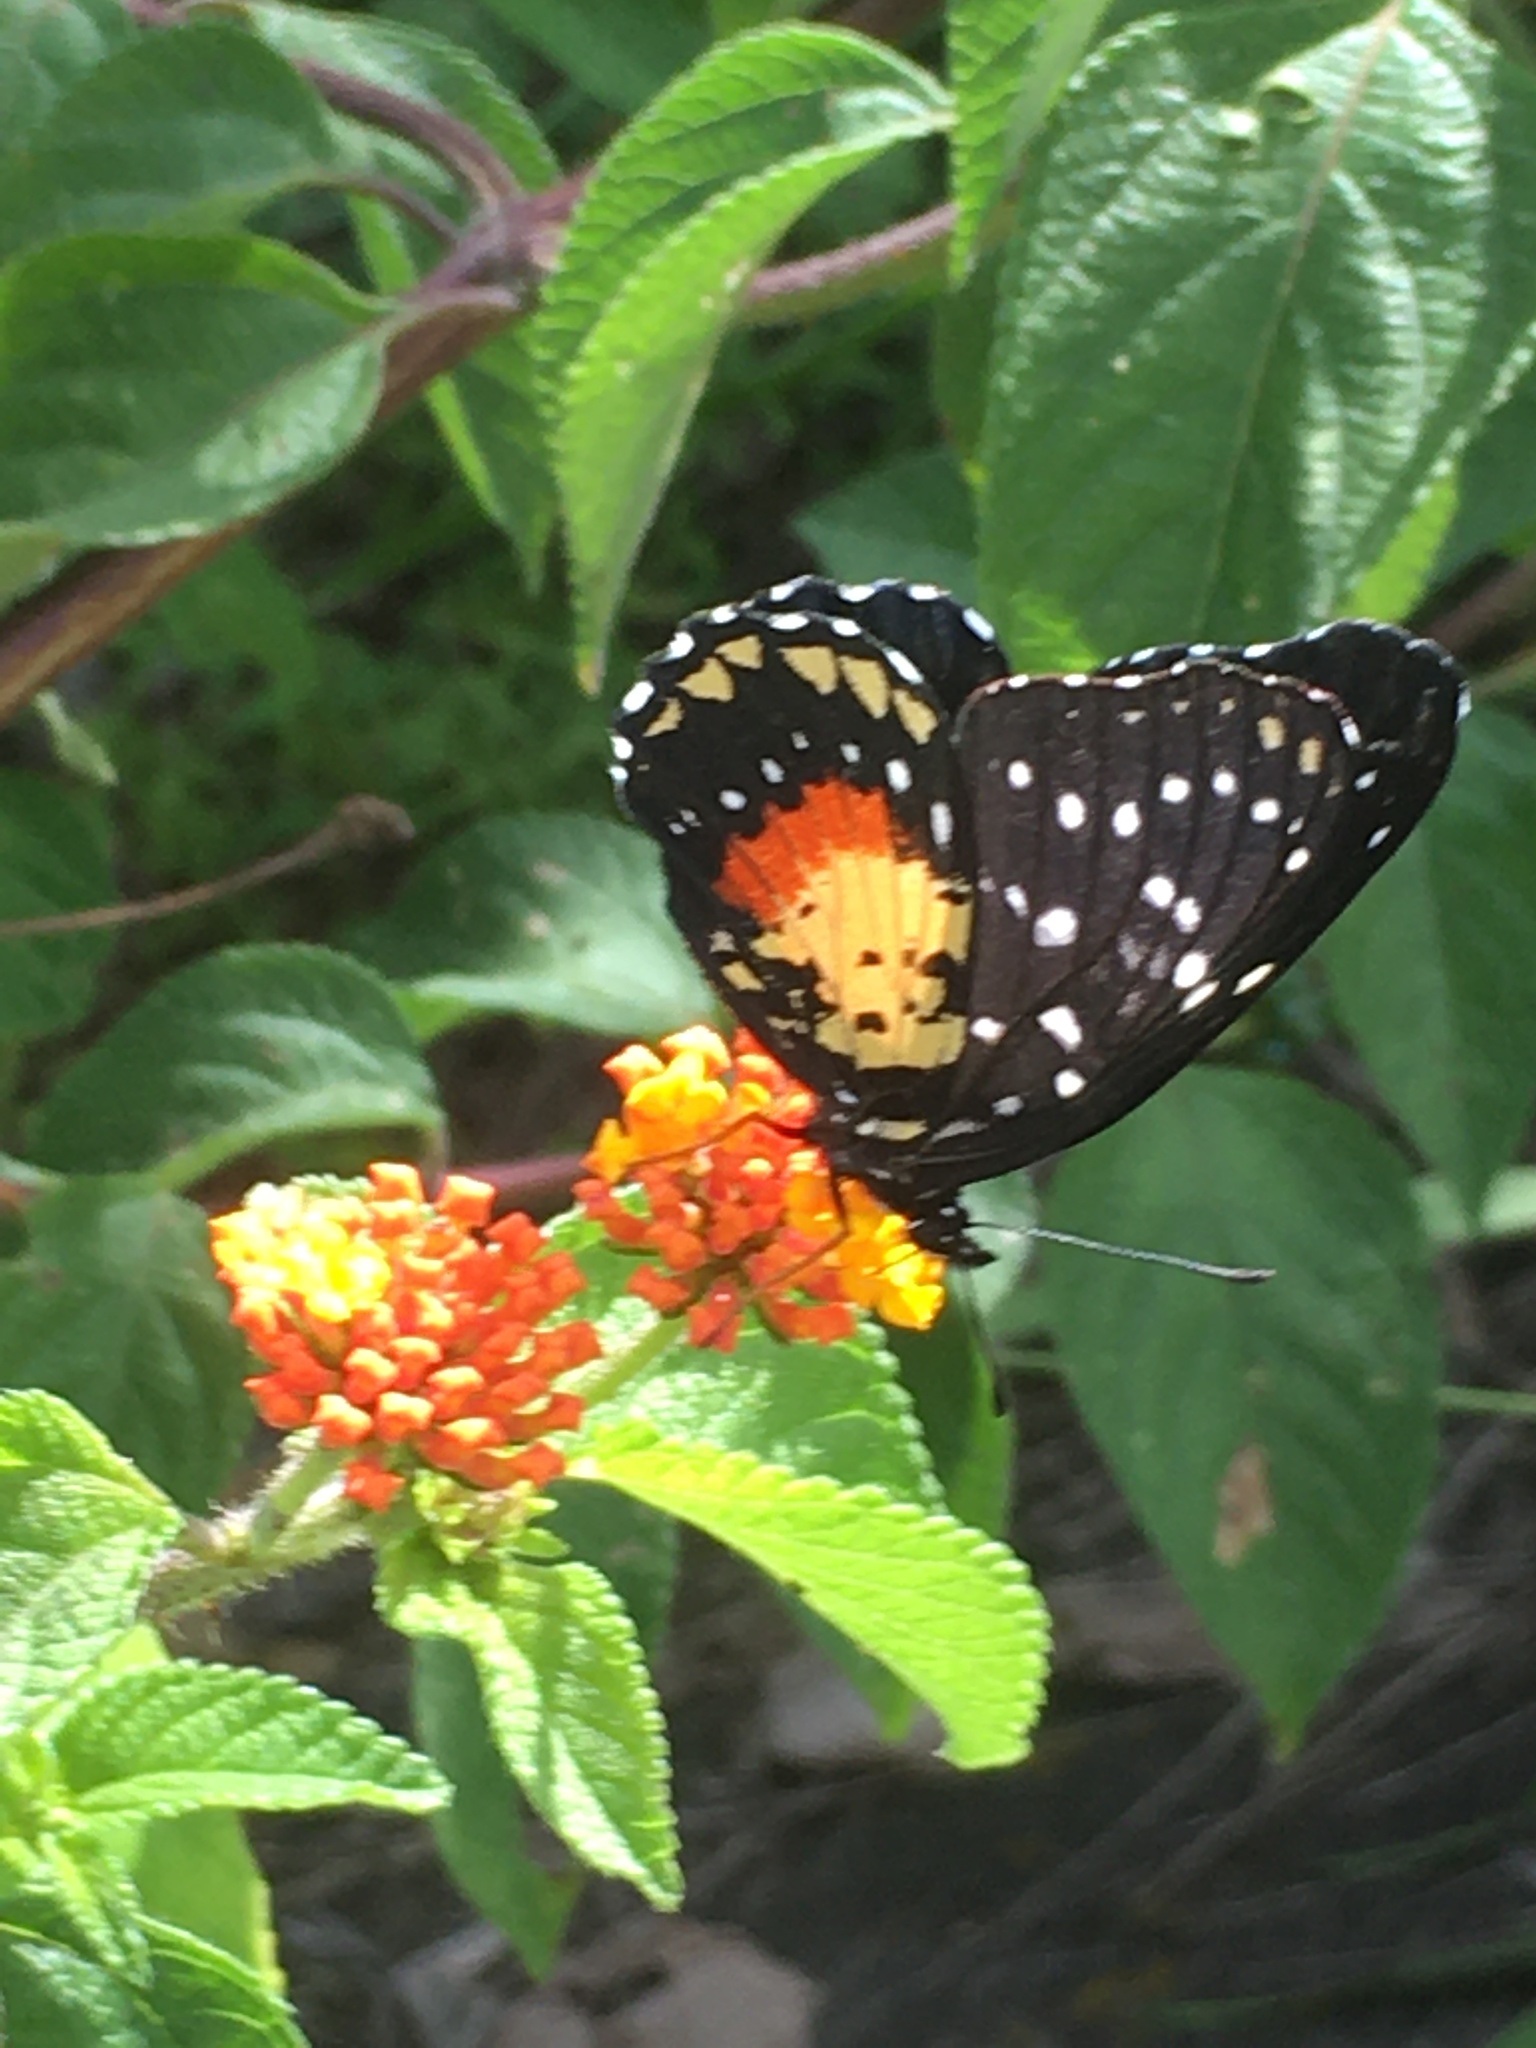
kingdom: Animalia
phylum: Arthropoda
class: Insecta
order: Lepidoptera
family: Nymphalidae
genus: Chlosyne
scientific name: Chlosyne janais
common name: Crimson patch
